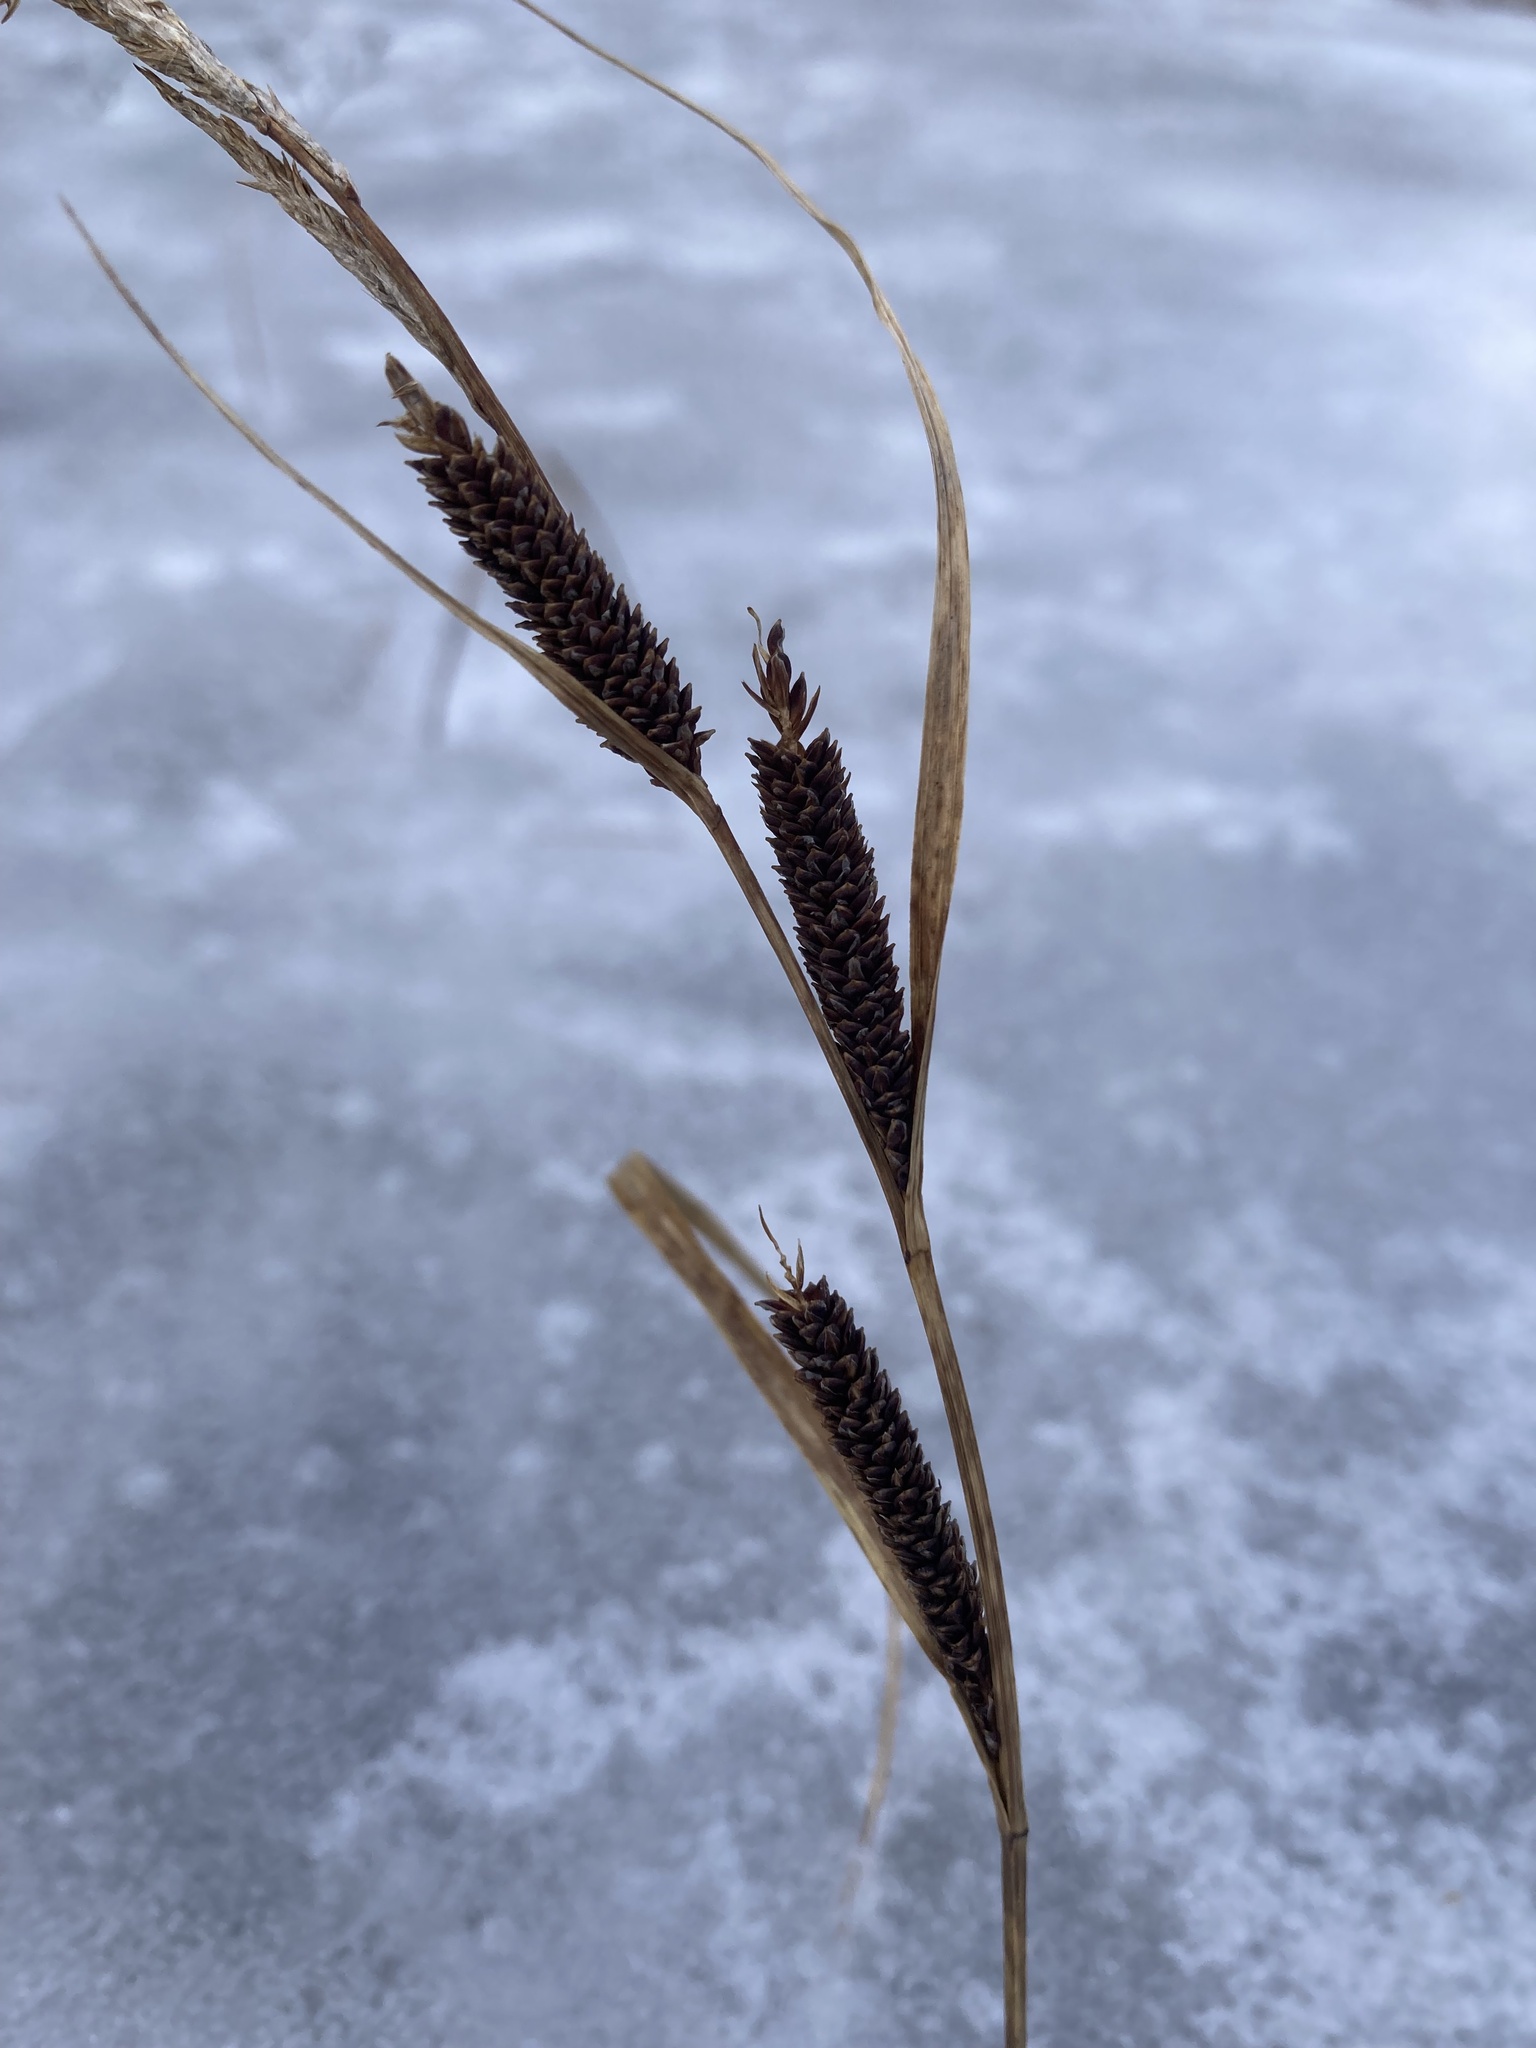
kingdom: Plantae
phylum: Tracheophyta
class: Liliopsida
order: Poales
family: Cyperaceae
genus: Carex
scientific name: Carex aquatilis
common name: Water sedge
